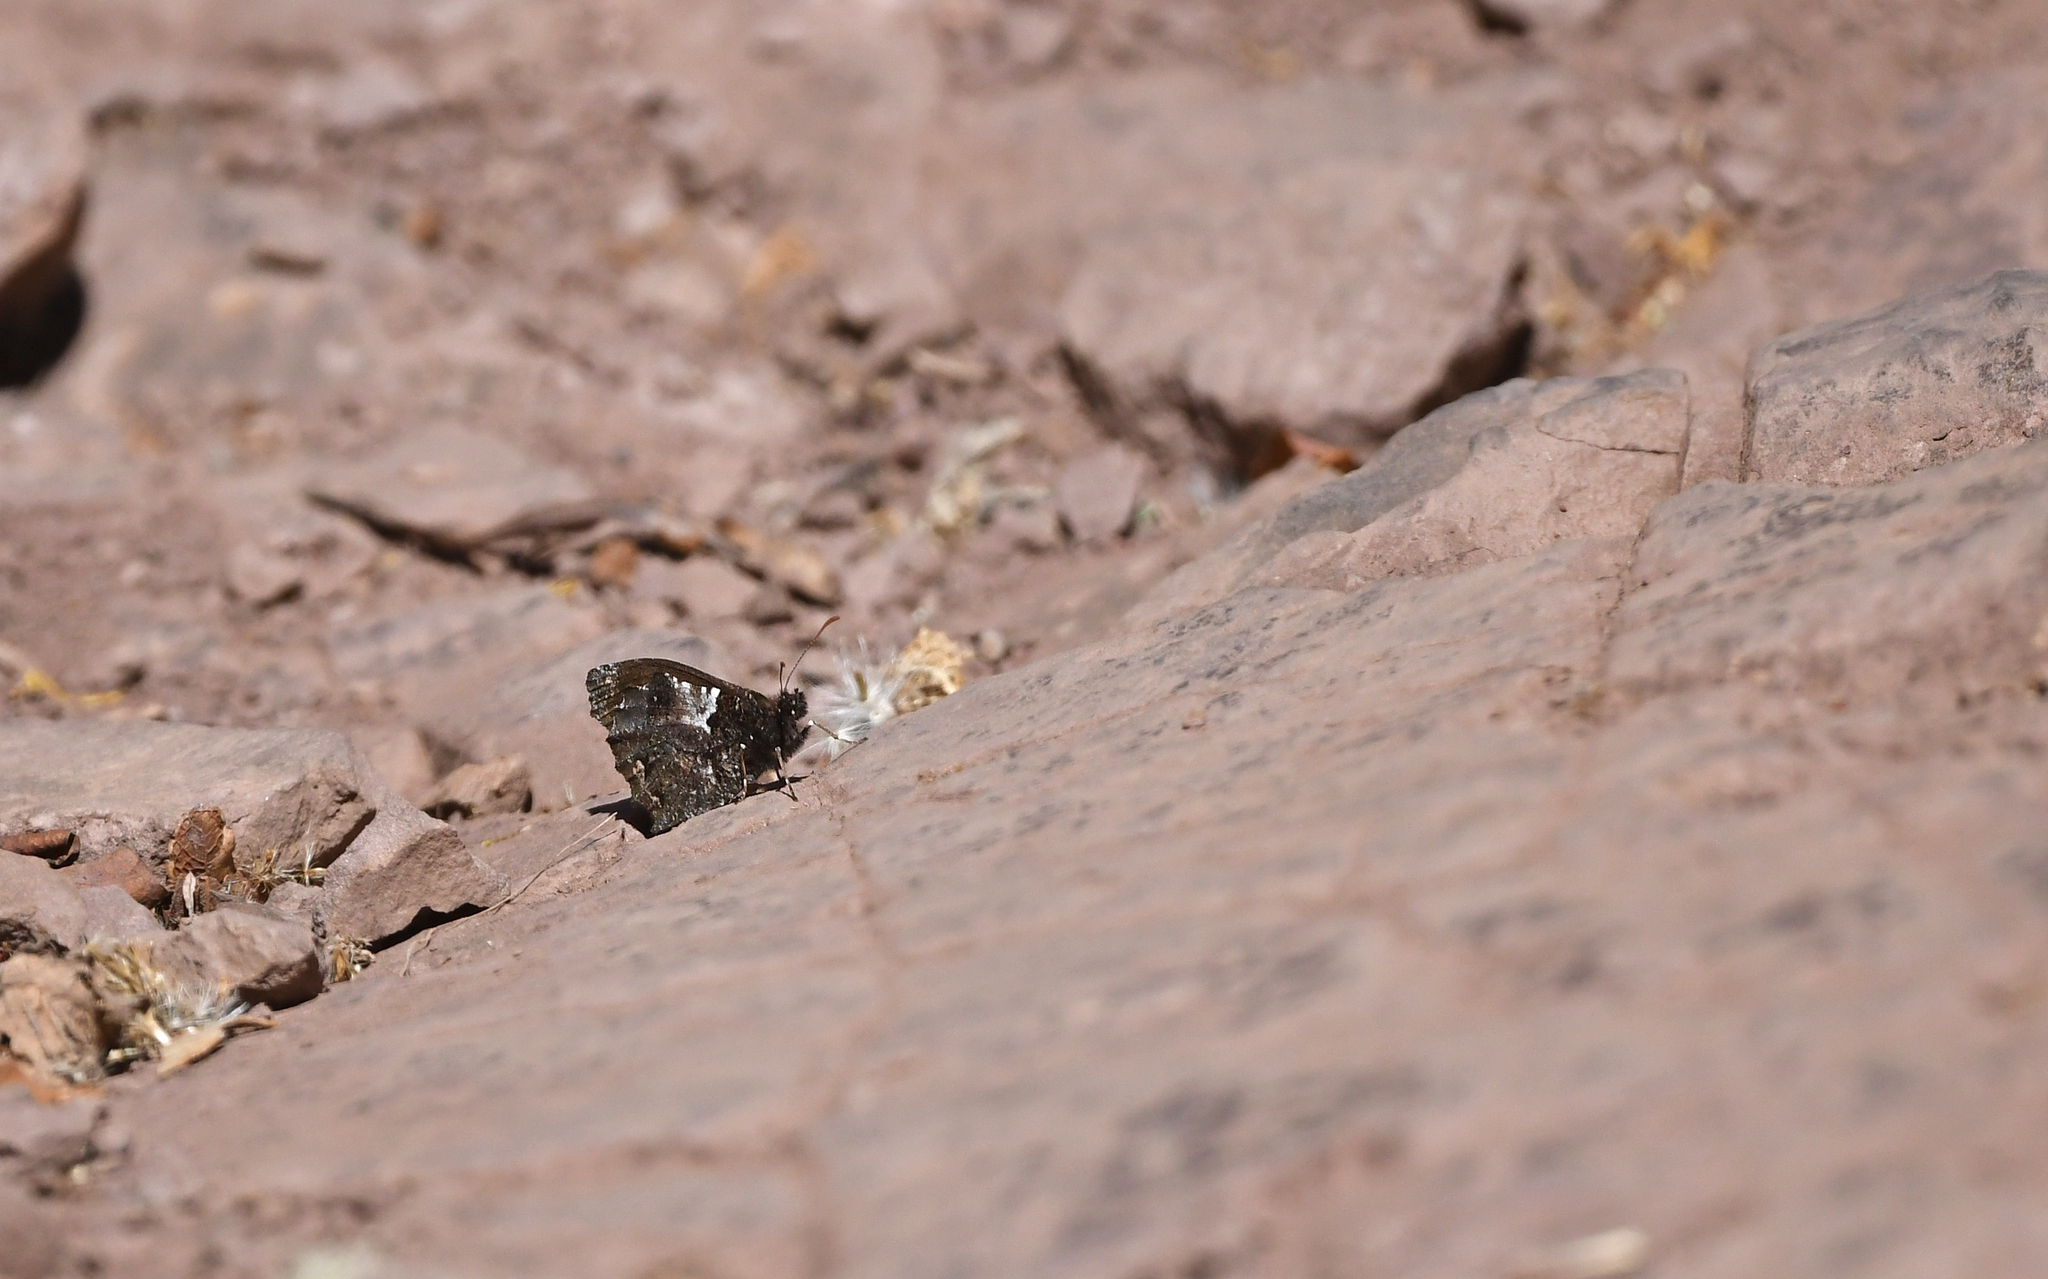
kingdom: Animalia
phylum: Arthropoda
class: Insecta
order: Lepidoptera
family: Nymphalidae
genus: Steroma
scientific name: Steroma bega
